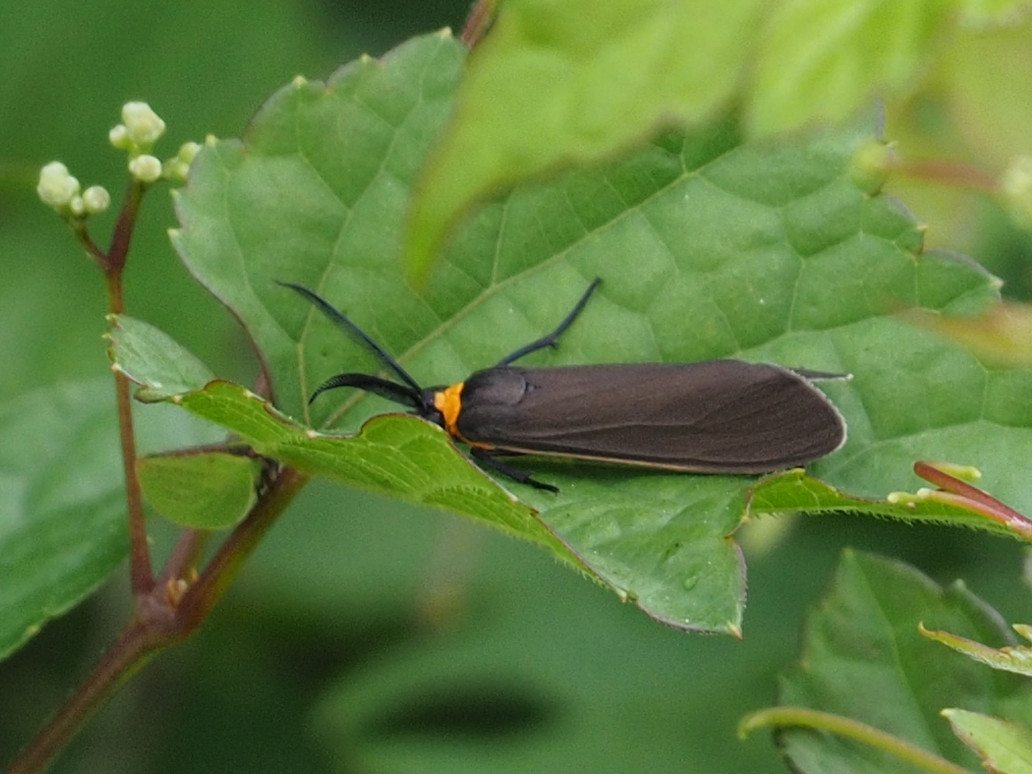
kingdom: Animalia
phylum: Arthropoda
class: Insecta
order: Lepidoptera
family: Erebidae
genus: Cisseps
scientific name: Cisseps fulvicollis
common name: Yellow-collared scape moth
